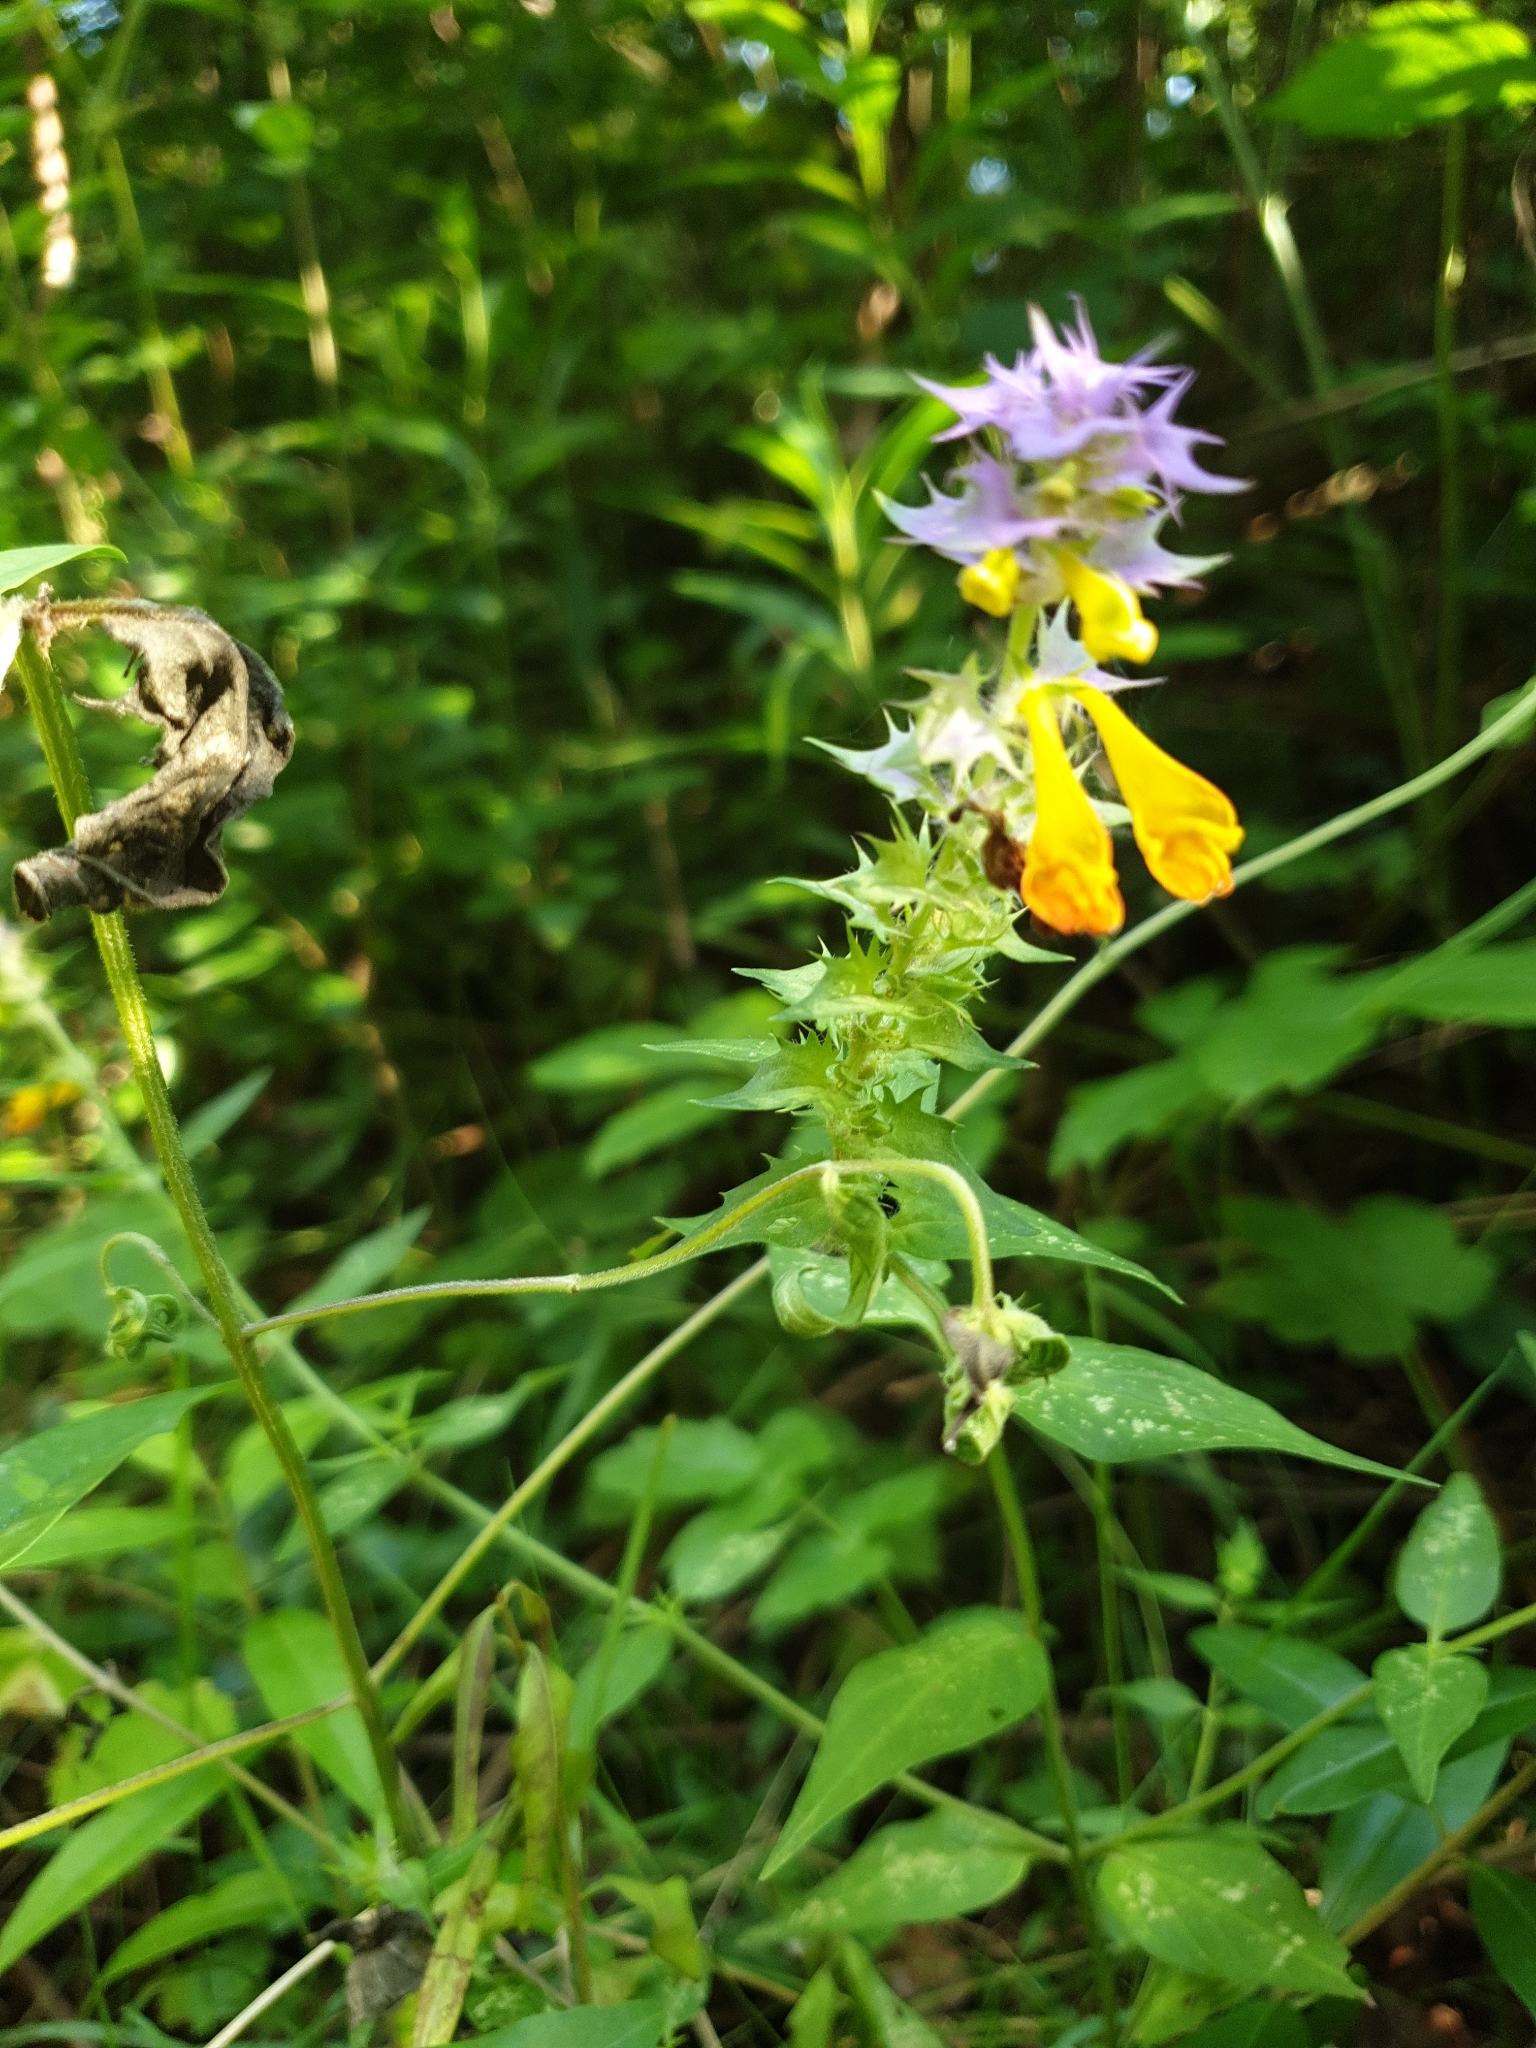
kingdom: Plantae
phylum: Tracheophyta
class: Magnoliopsida
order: Lamiales
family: Orobanchaceae
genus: Melampyrum
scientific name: Melampyrum nemorosum
